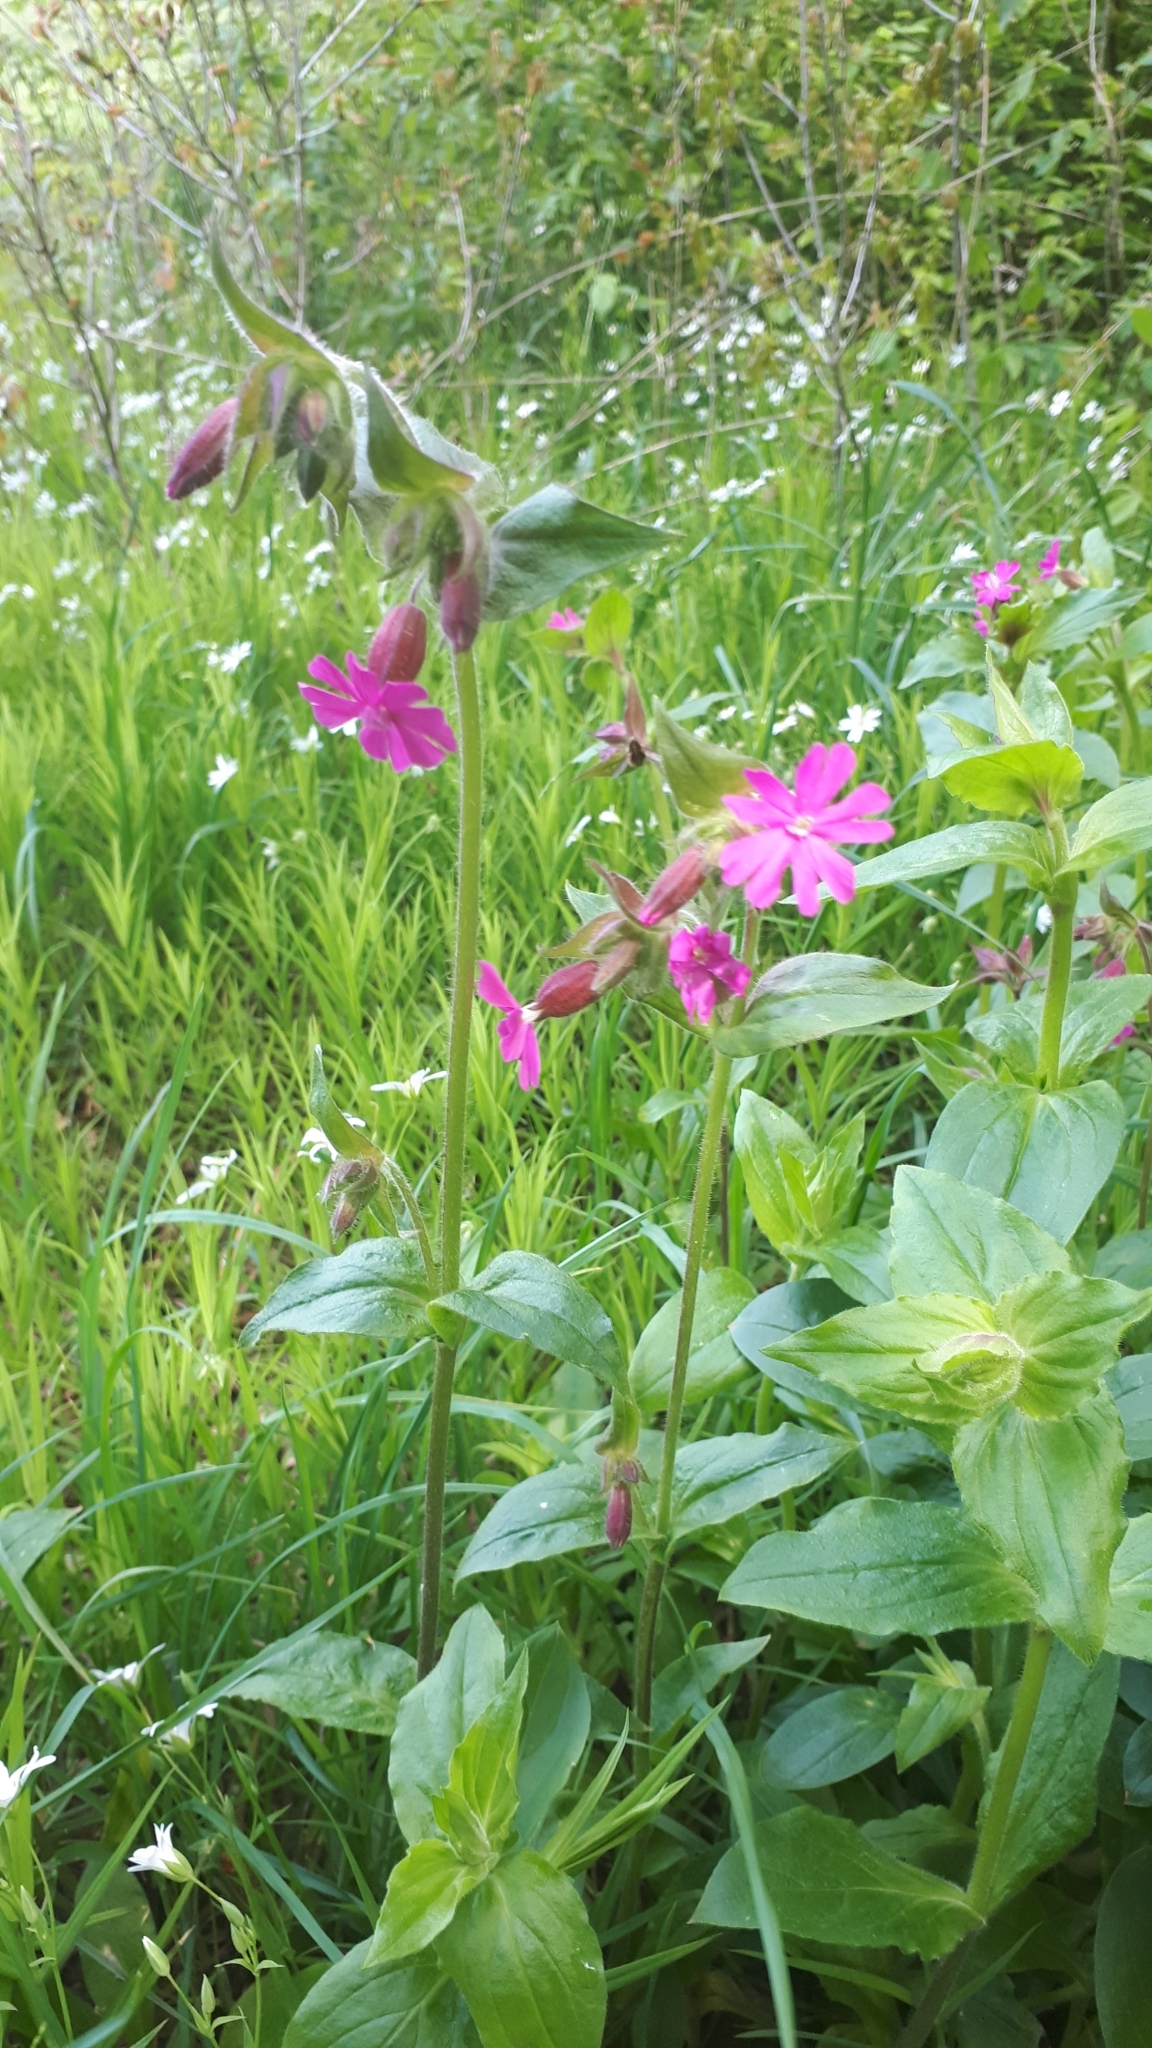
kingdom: Plantae
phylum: Tracheophyta
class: Magnoliopsida
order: Caryophyllales
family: Caryophyllaceae
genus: Silene
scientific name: Silene dioica
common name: Red campion
